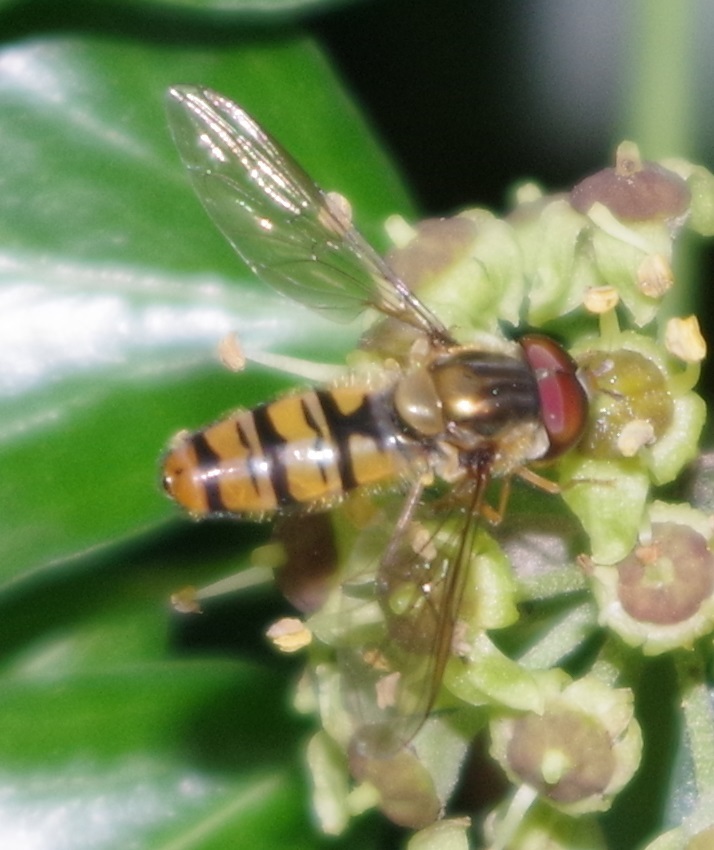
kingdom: Animalia
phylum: Arthropoda
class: Insecta
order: Diptera
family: Syrphidae
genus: Episyrphus
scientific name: Episyrphus balteatus
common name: Marmalade hoverfly
